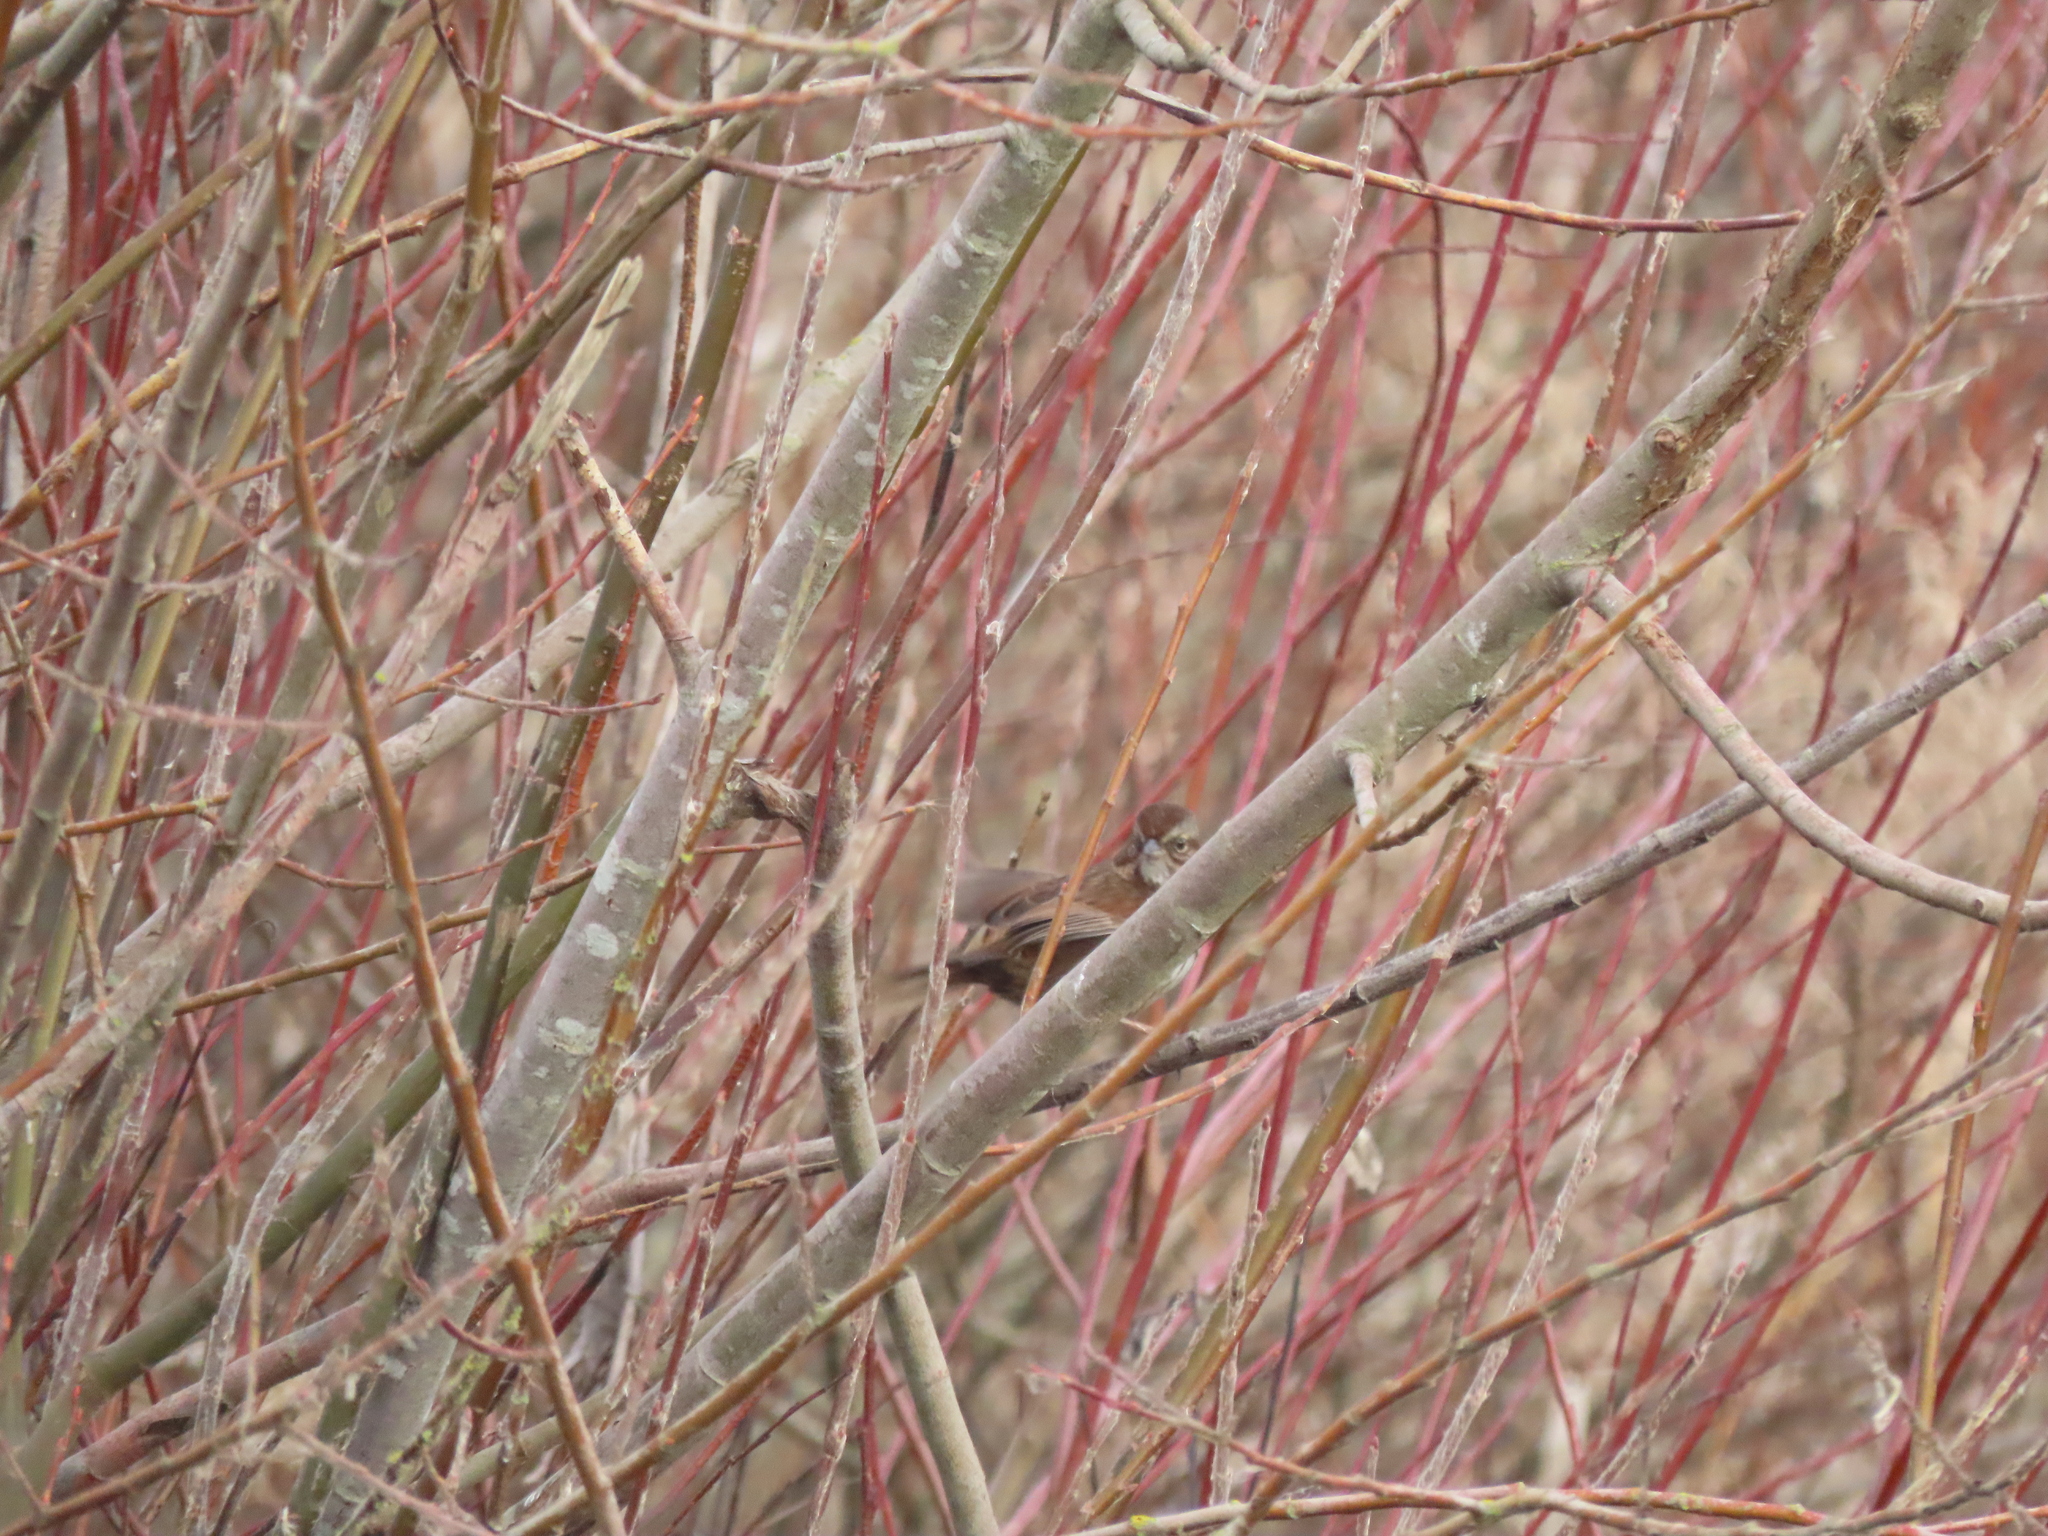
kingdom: Animalia
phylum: Chordata
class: Aves
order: Passeriformes
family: Passerellidae
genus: Melospiza
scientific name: Melospiza melodia
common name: Song sparrow
